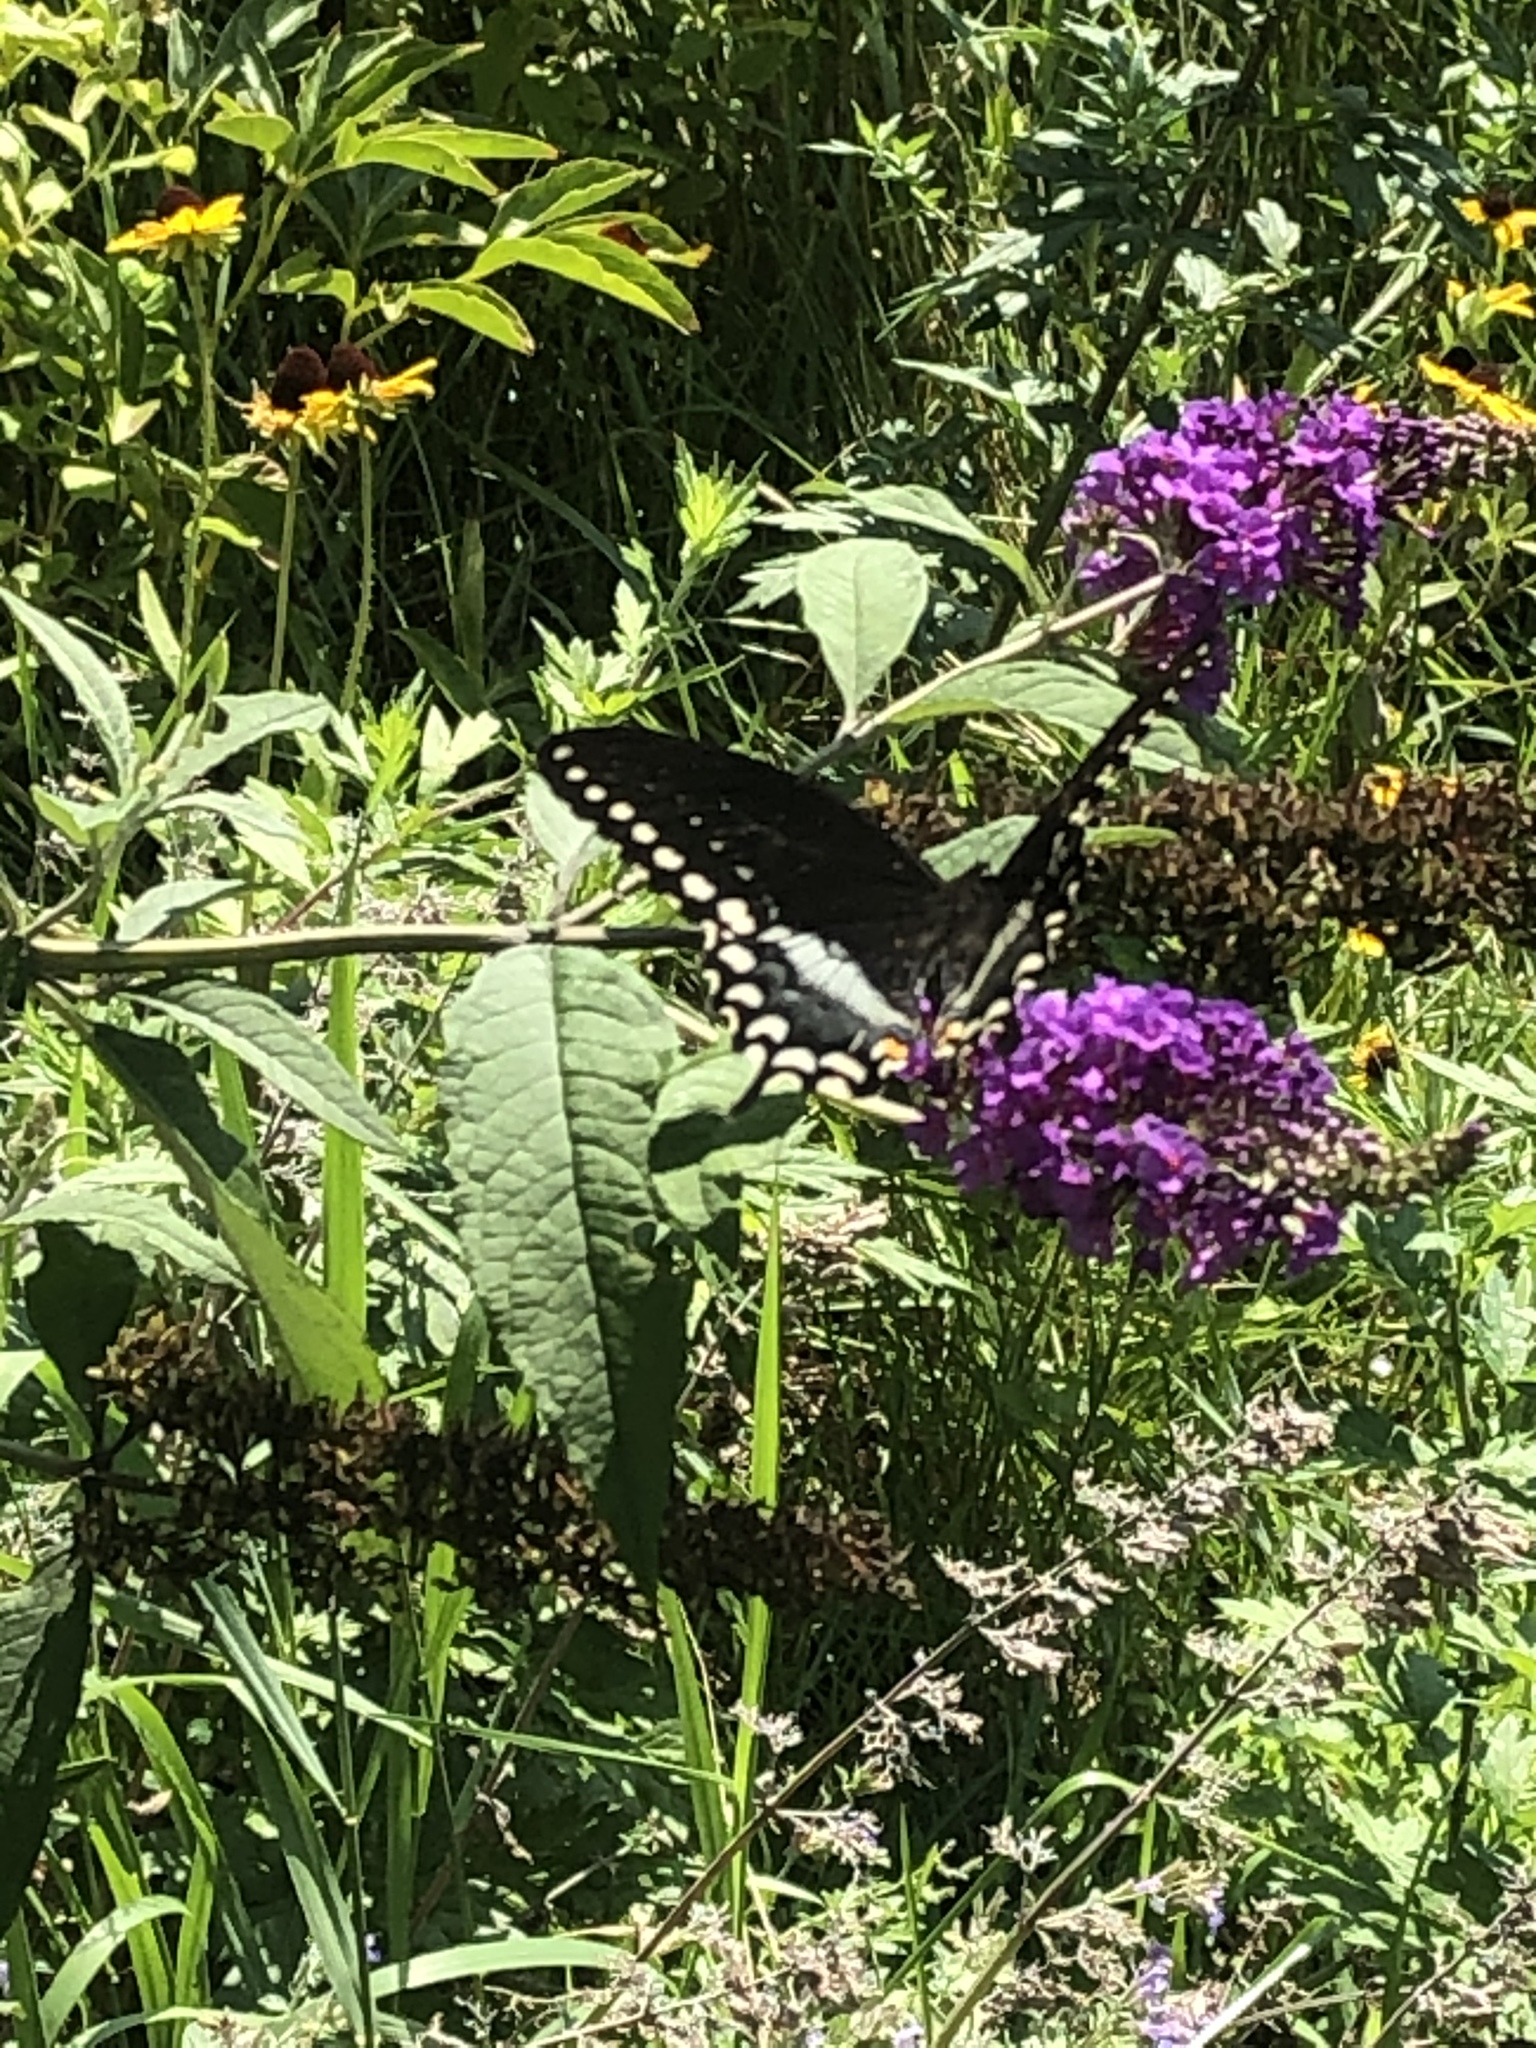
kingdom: Animalia
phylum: Arthropoda
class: Insecta
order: Lepidoptera
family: Papilionidae
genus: Papilio
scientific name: Papilio troilus
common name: Spicebush swallowtail
